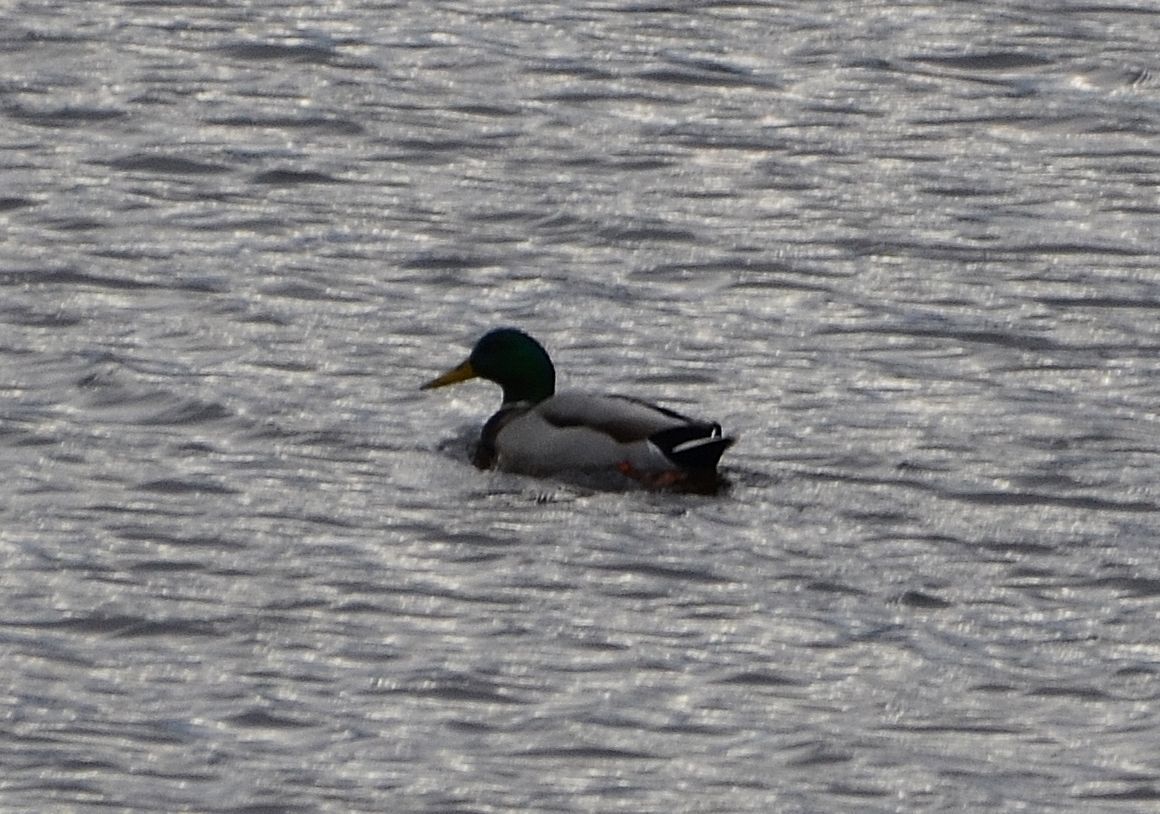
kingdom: Animalia
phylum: Chordata
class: Aves
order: Anseriformes
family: Anatidae
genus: Anas
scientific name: Anas platyrhynchos
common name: Mallard
